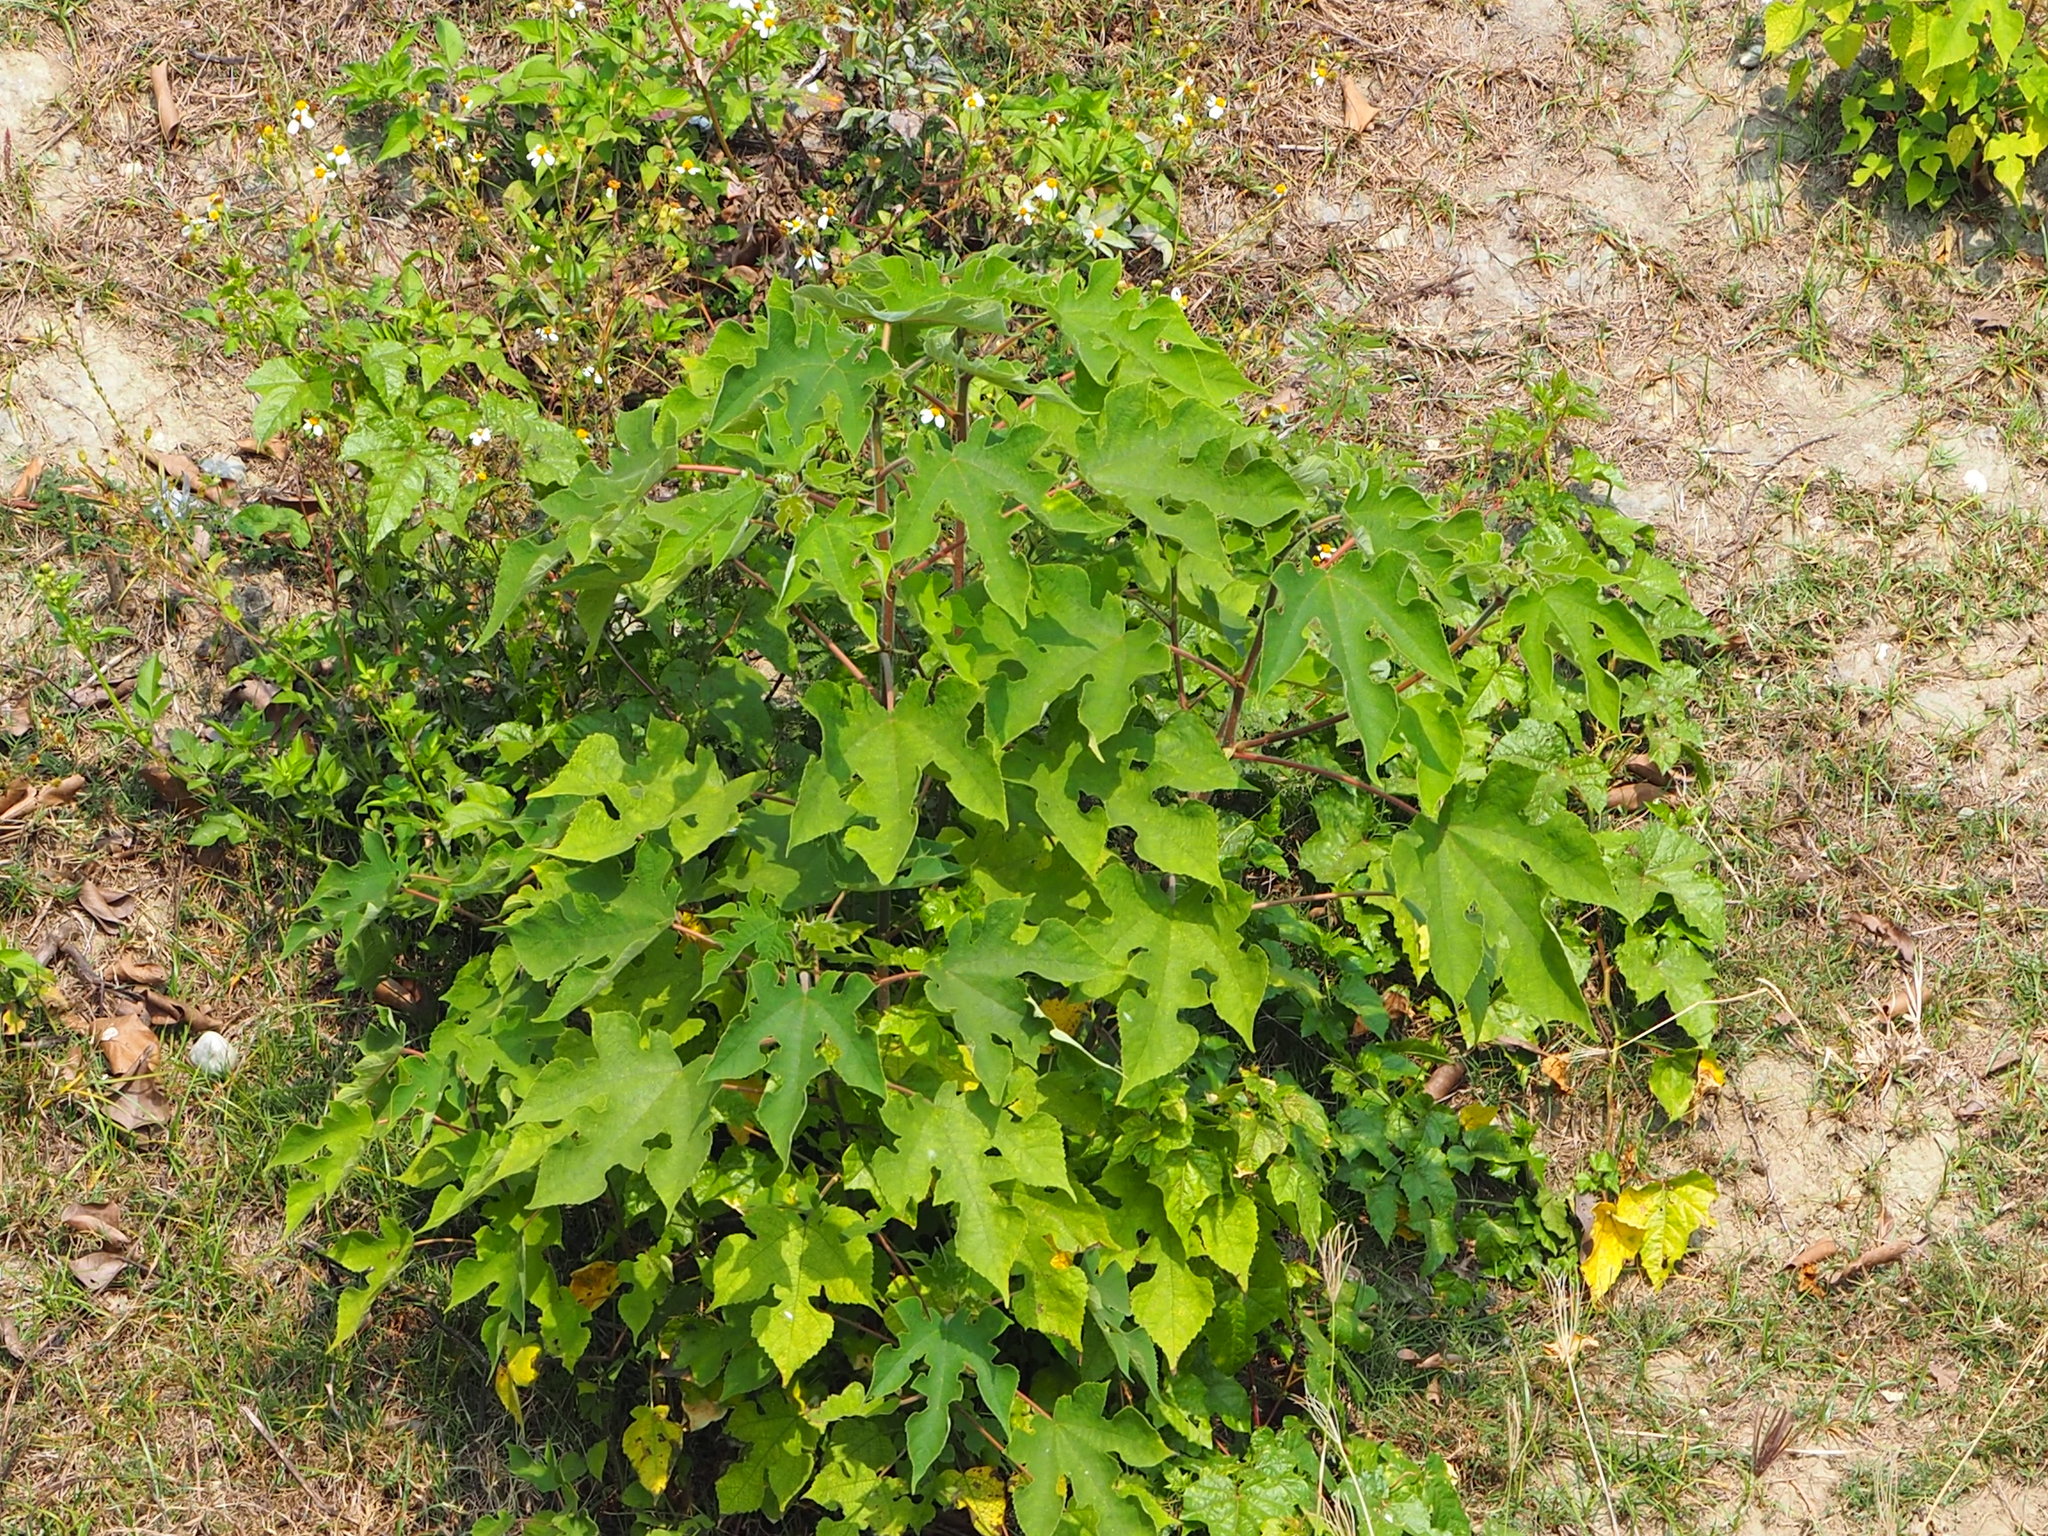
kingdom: Plantae
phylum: Tracheophyta
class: Magnoliopsida
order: Rosales
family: Moraceae
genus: Broussonetia
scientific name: Broussonetia papyrifera
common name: Paper mulberry
